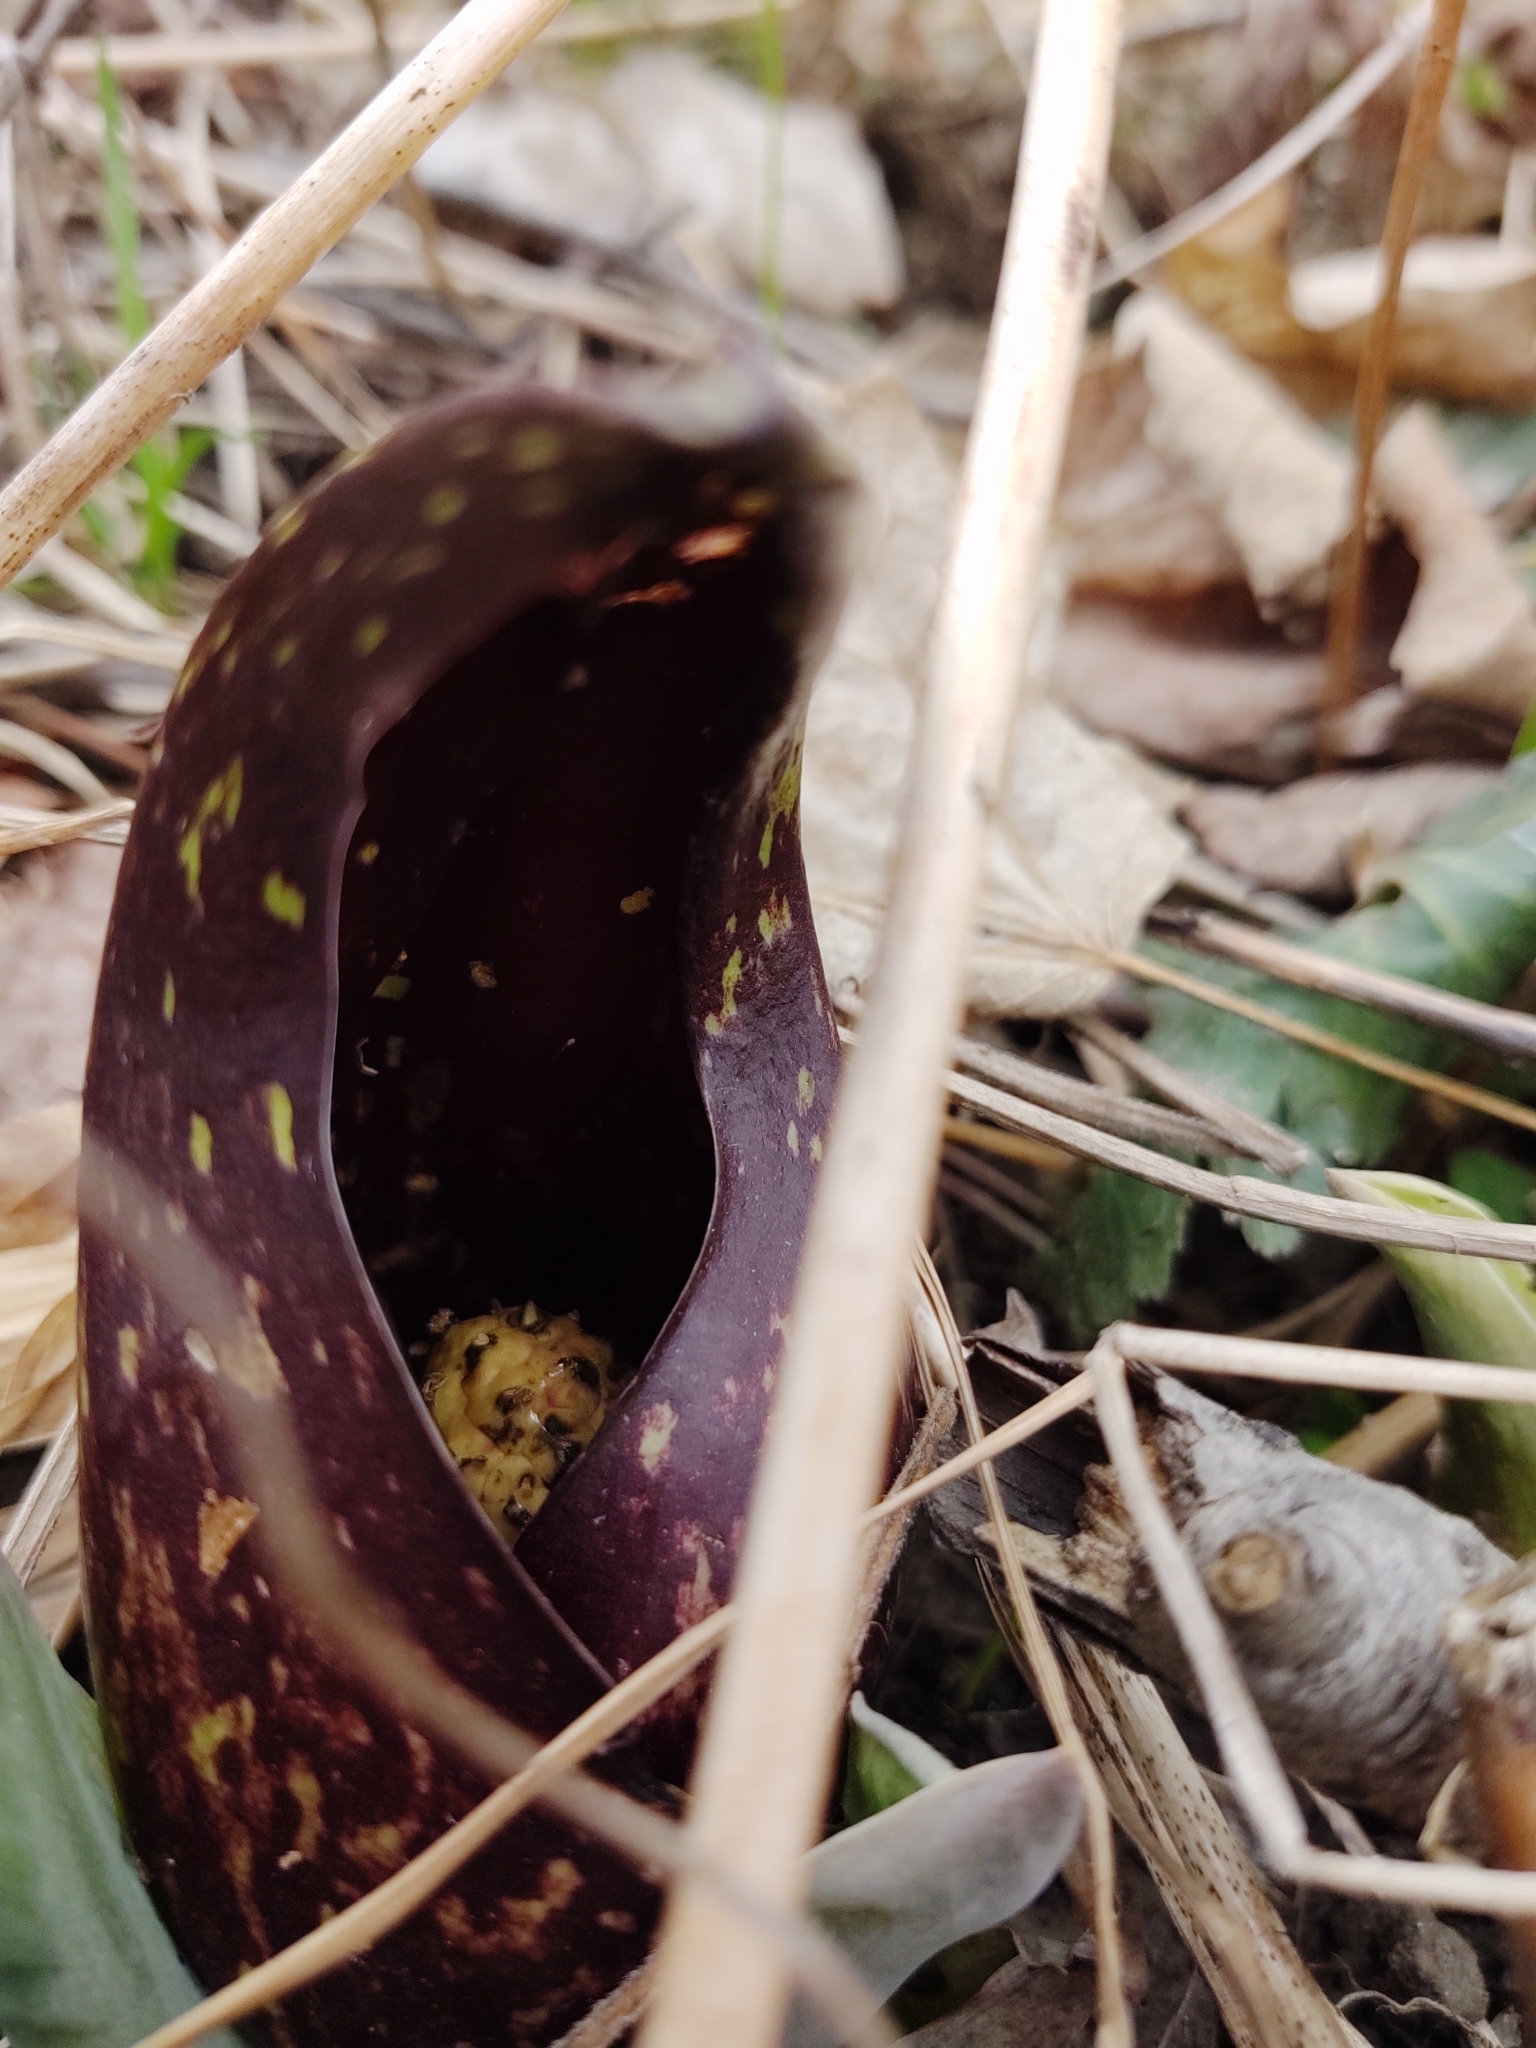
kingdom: Plantae
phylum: Tracheophyta
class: Liliopsida
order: Alismatales
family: Araceae
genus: Symplocarpus
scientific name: Symplocarpus foetidus
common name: Eastern skunk cabbage
